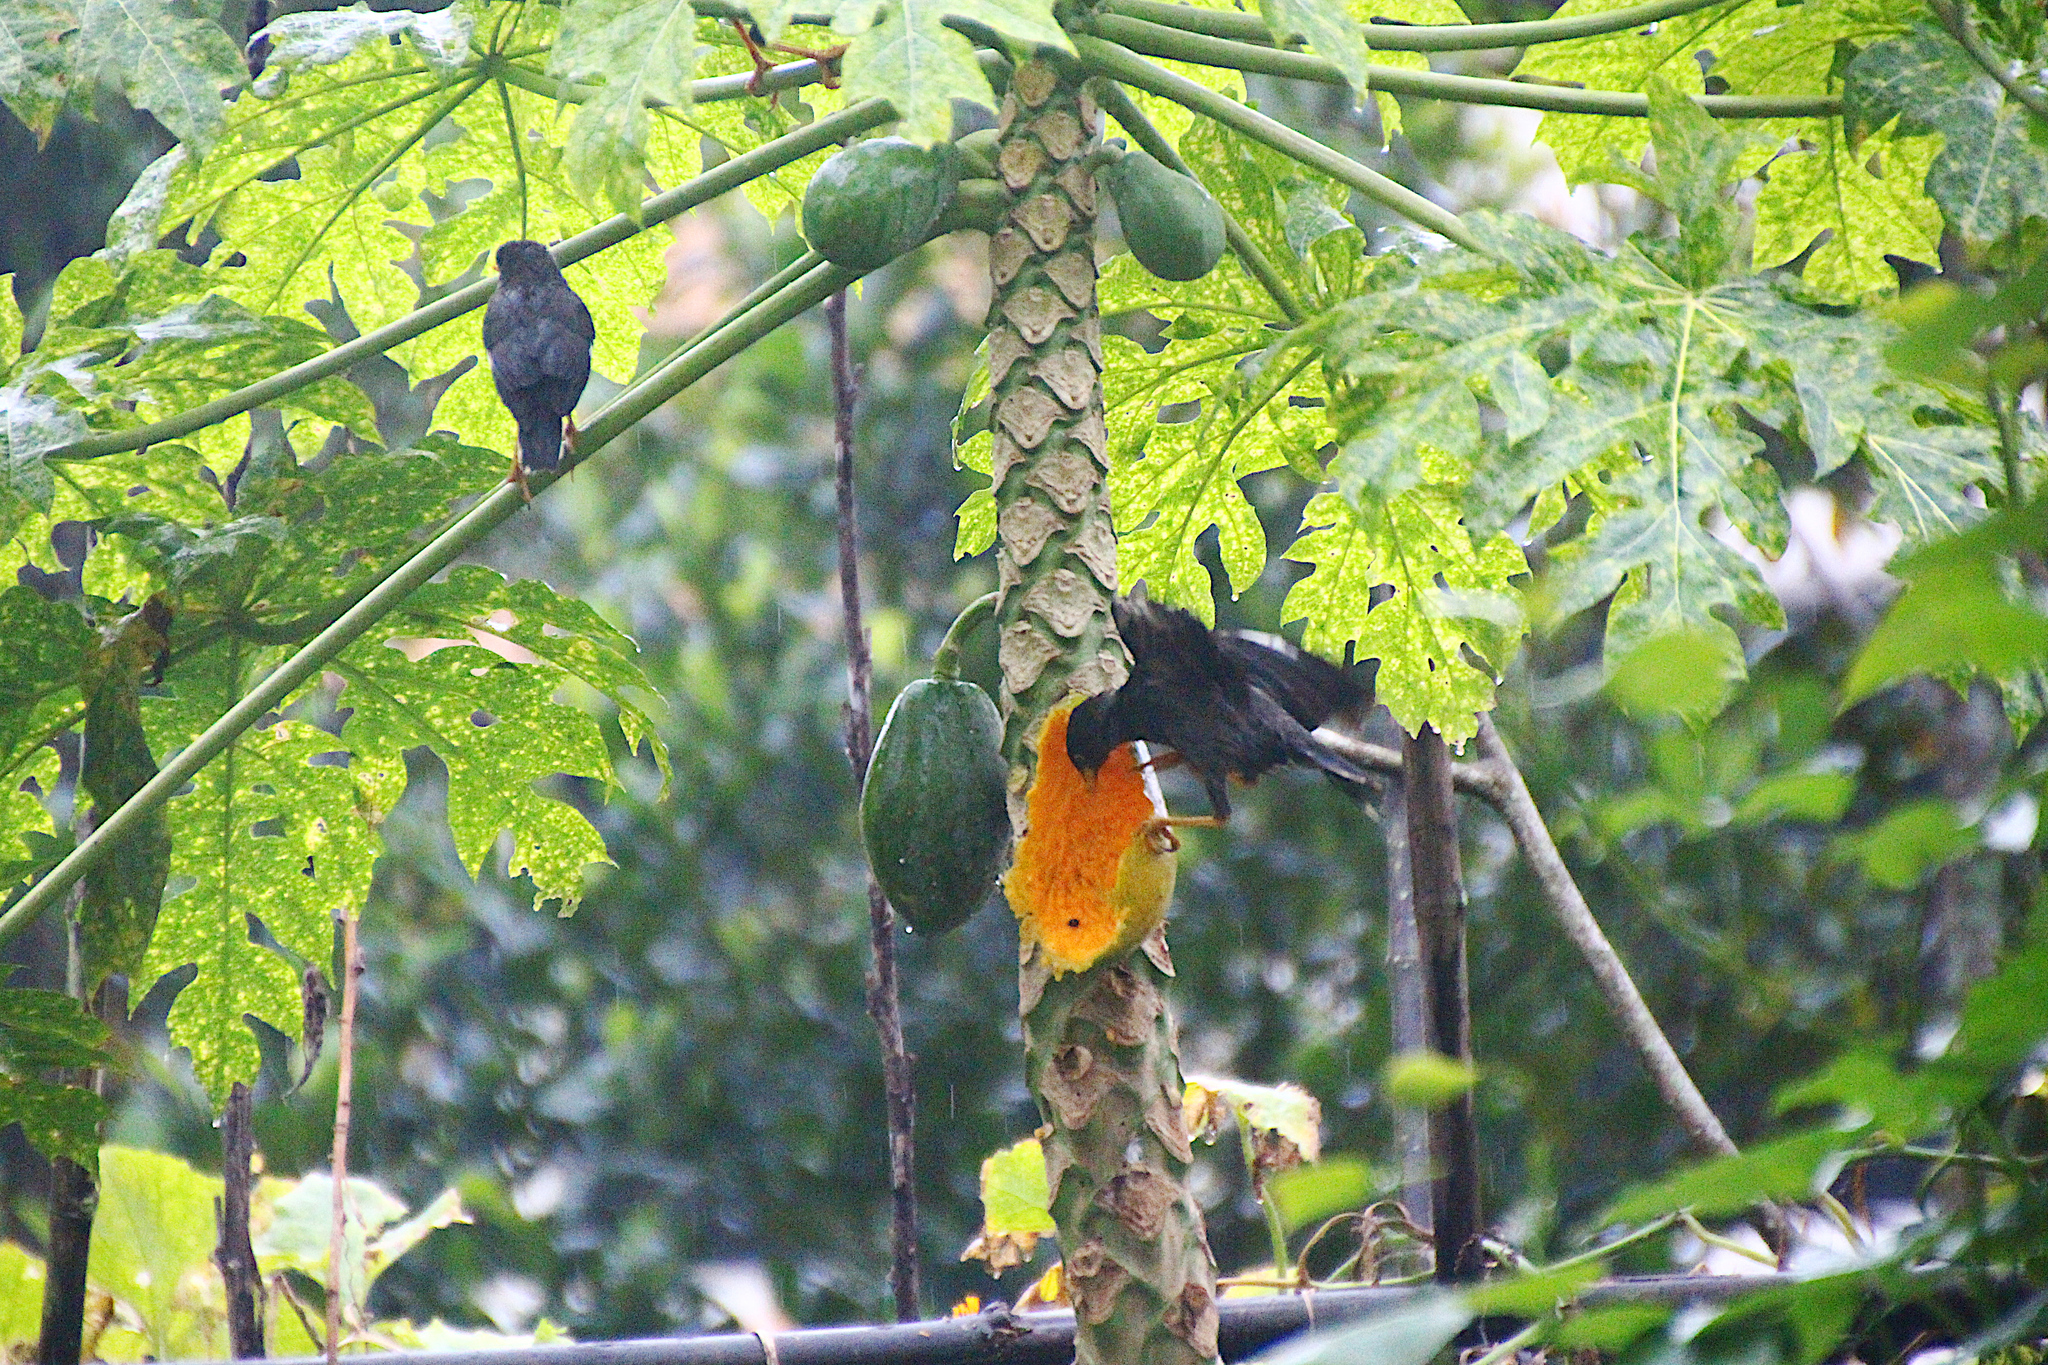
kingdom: Animalia
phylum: Chordata
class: Aves
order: Passeriformes
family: Sturnidae
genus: Acridotheres
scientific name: Acridotheres javanicus
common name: Javan myna
